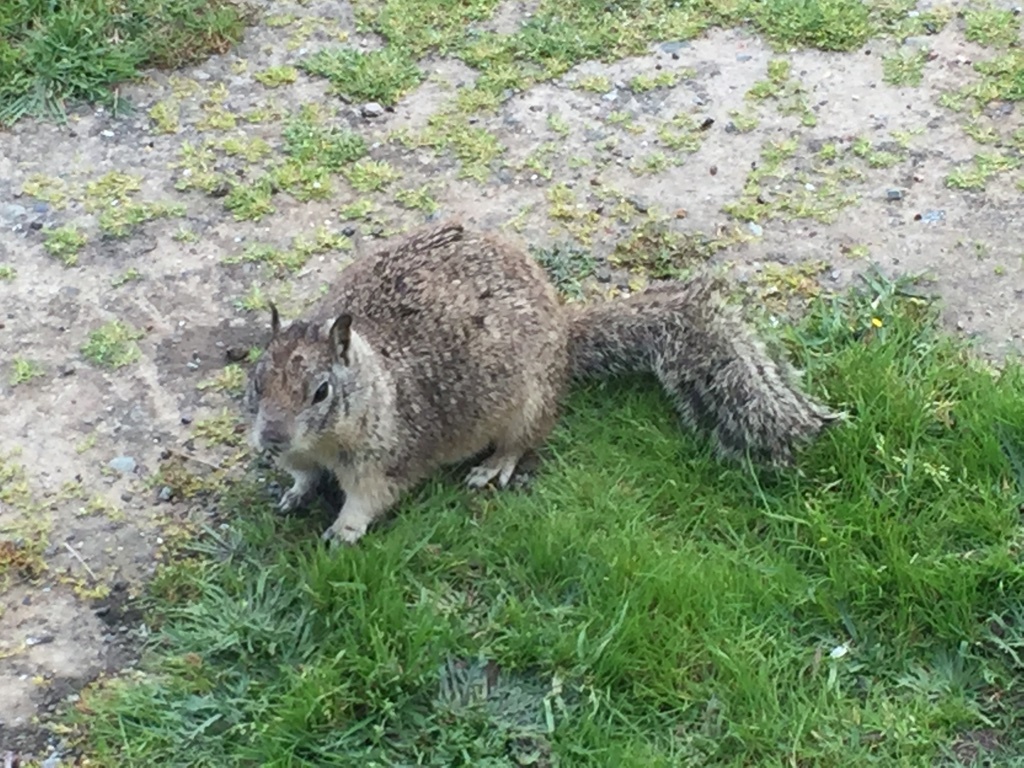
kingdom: Animalia
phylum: Chordata
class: Mammalia
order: Rodentia
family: Sciuridae
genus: Otospermophilus
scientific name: Otospermophilus beecheyi
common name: California ground squirrel
